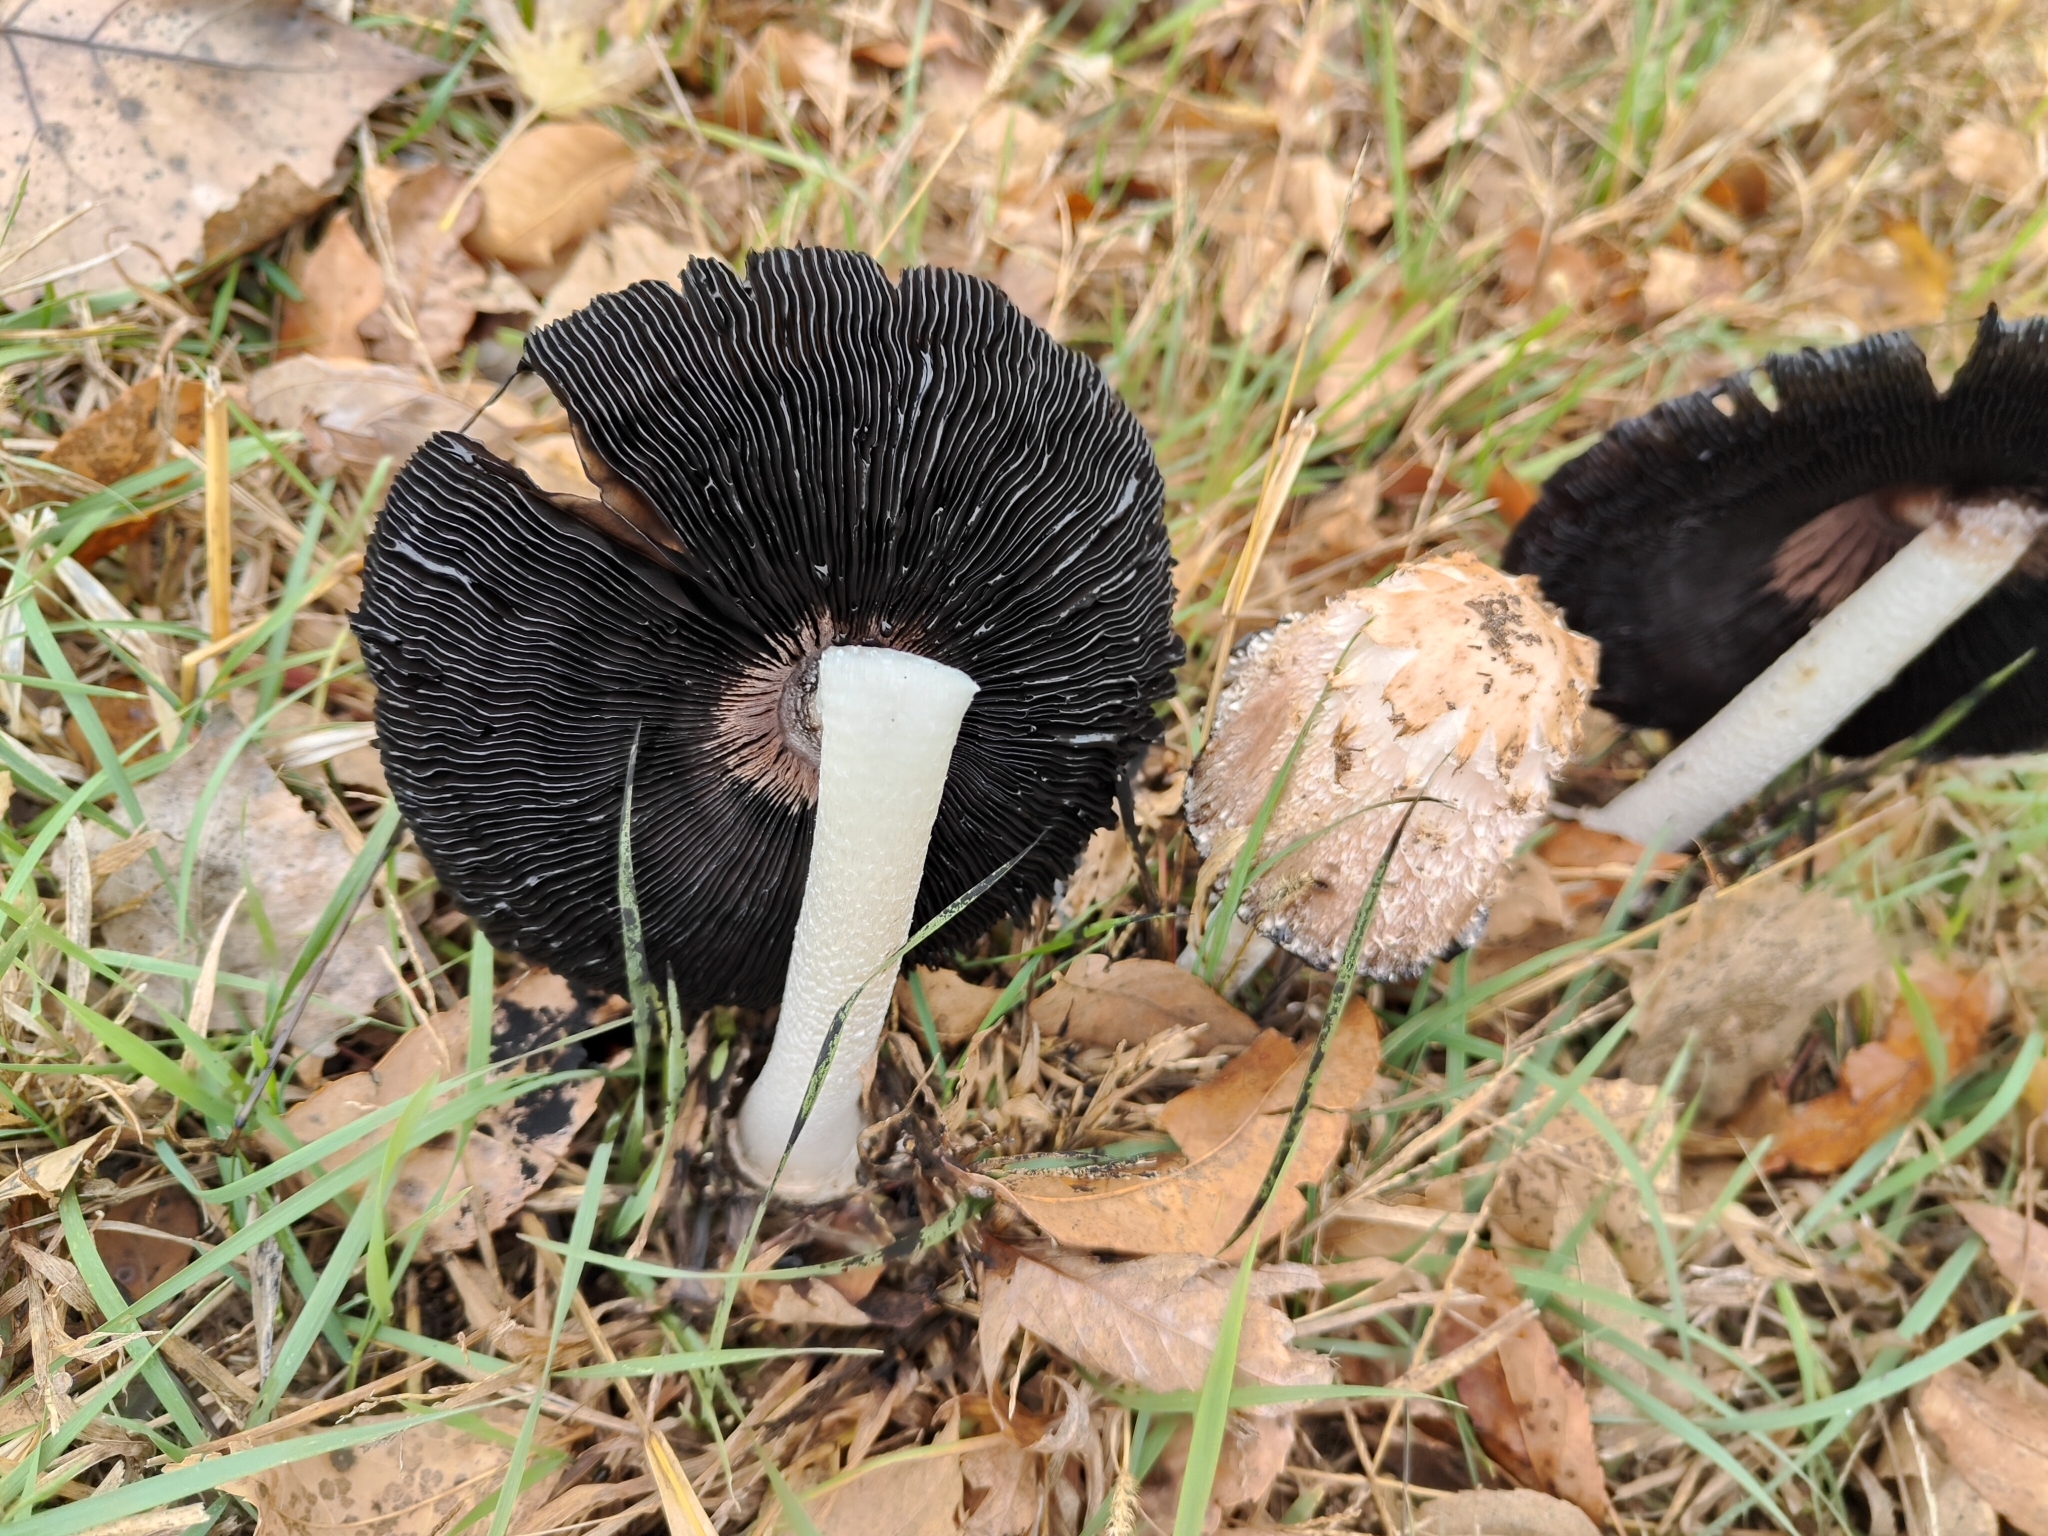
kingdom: Fungi
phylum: Basidiomycota
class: Agaricomycetes
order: Agaricales
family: Agaricaceae
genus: Coprinus
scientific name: Coprinus comatus
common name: Lawyer's wig
